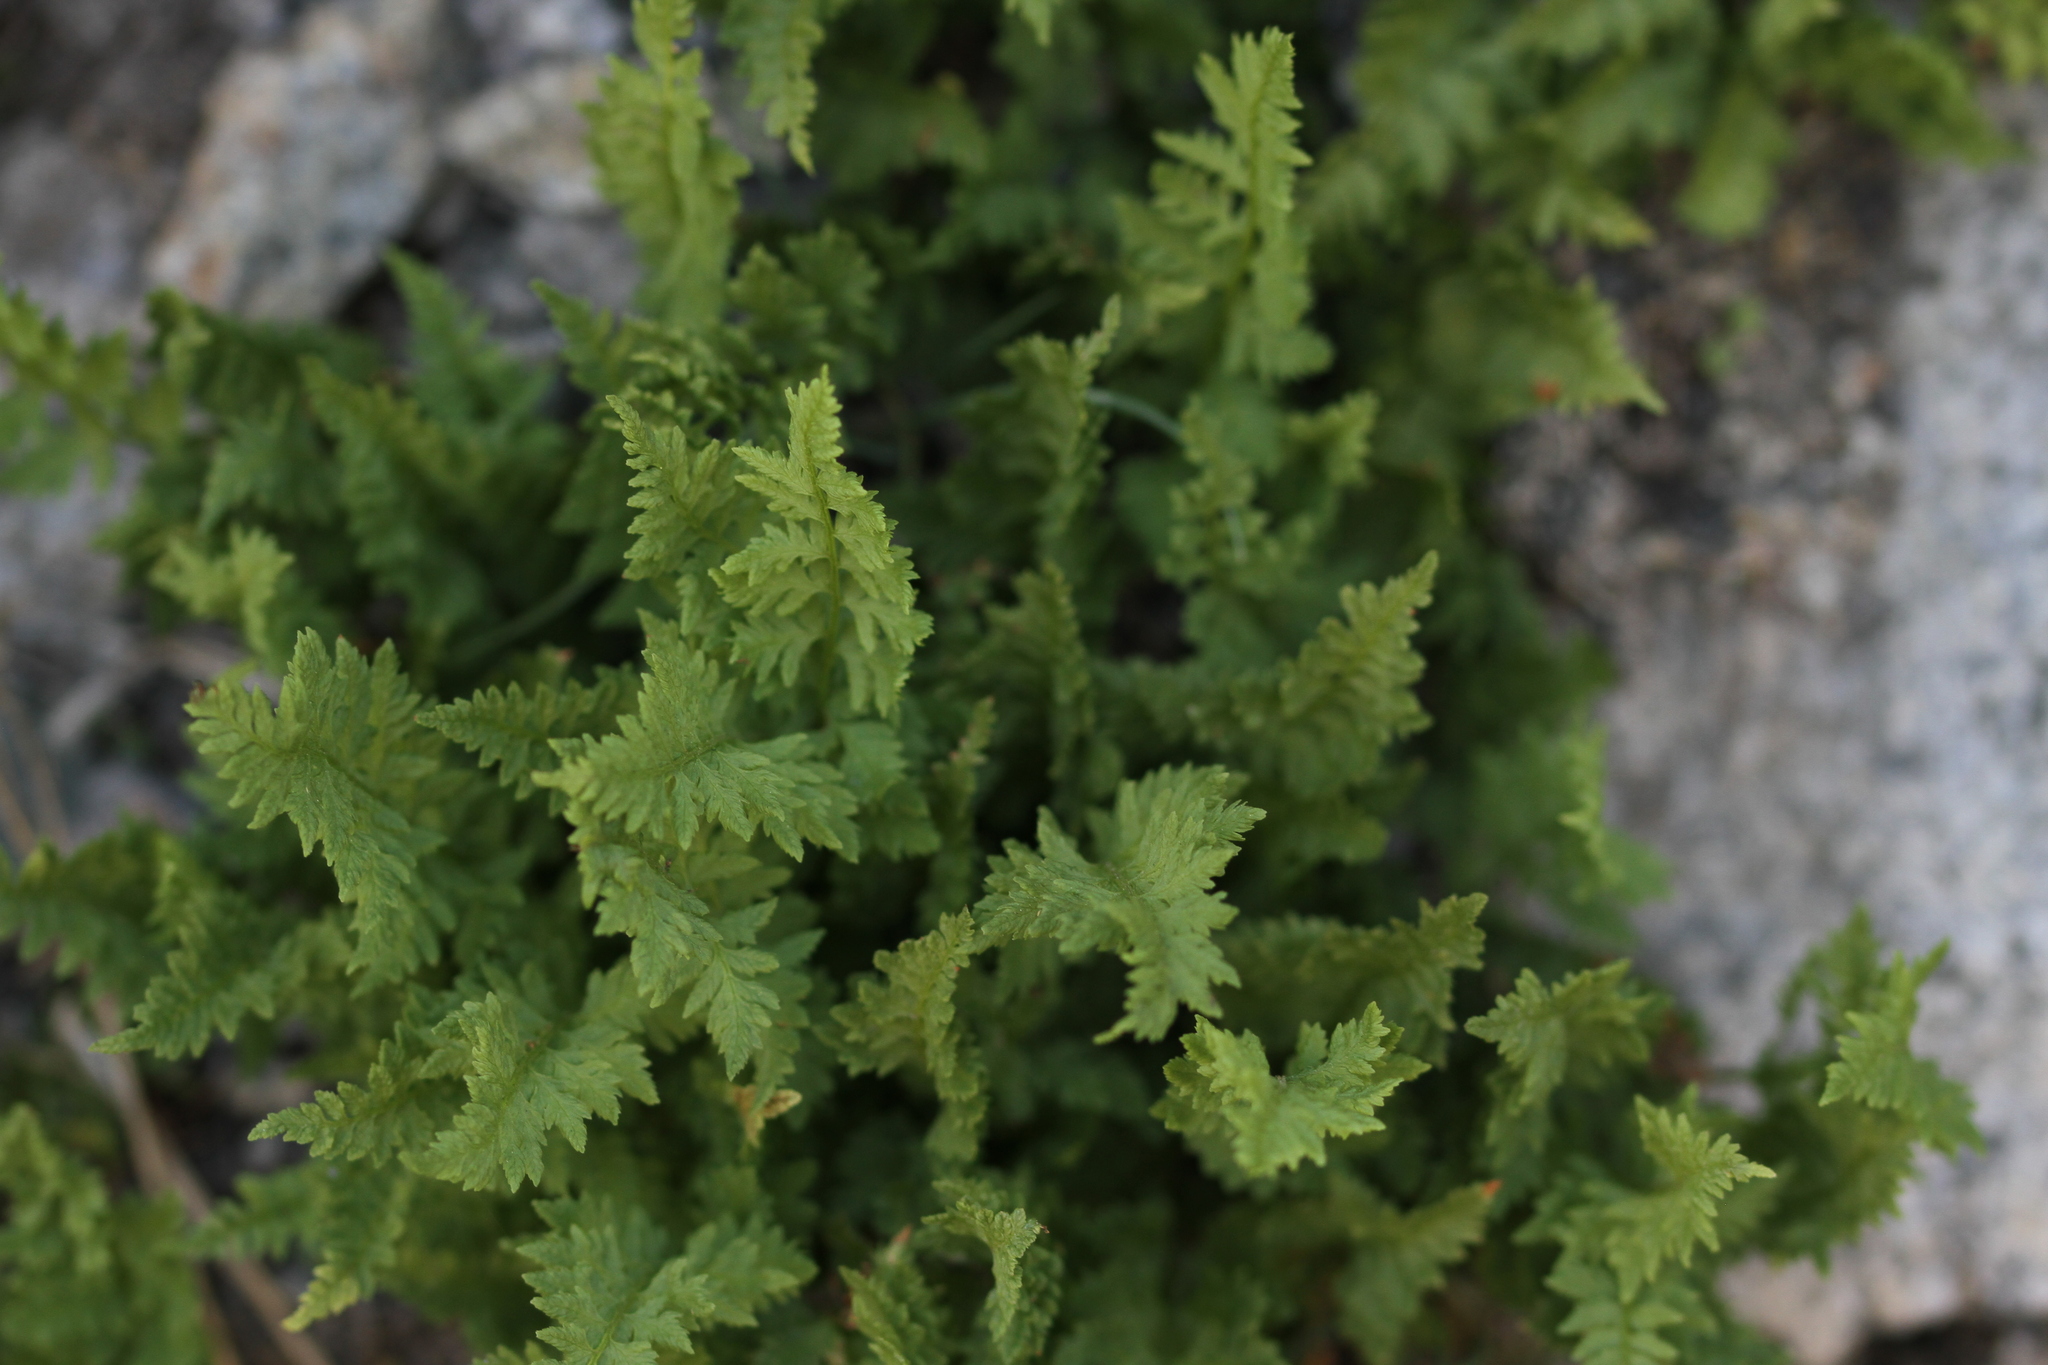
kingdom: Plantae
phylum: Tracheophyta
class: Polypodiopsida
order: Polypodiales
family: Cystopteridaceae
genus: Cystopteris
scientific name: Cystopteris fragilis
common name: Brittle bladder fern
